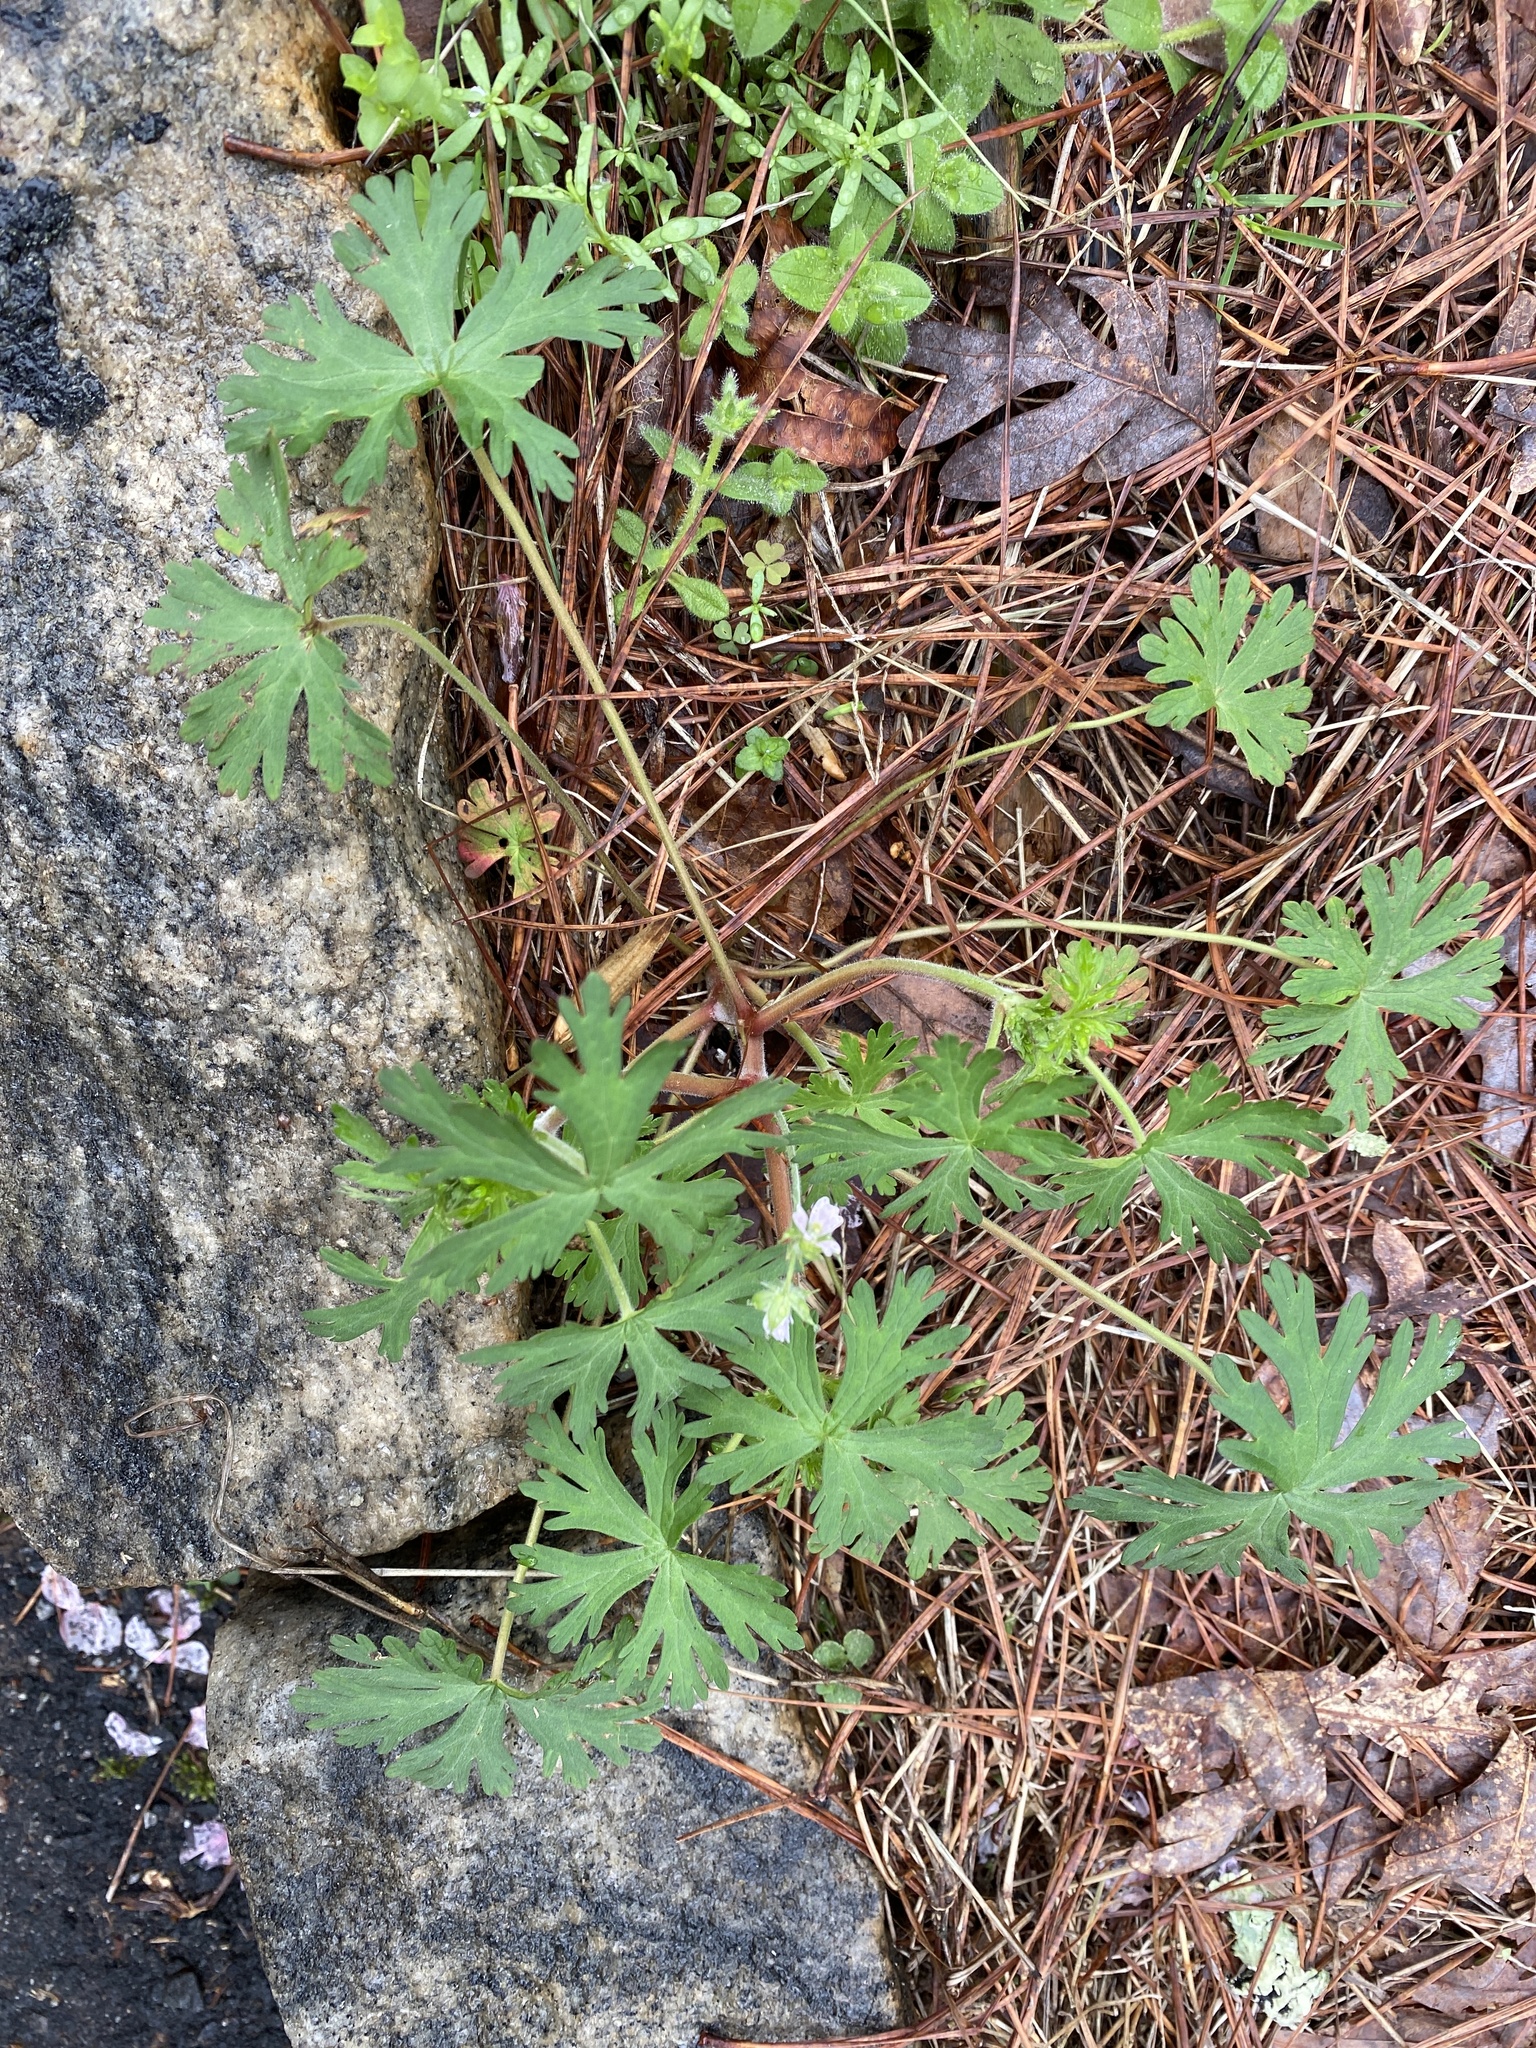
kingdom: Plantae
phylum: Tracheophyta
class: Magnoliopsida
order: Geraniales
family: Geraniaceae
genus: Geranium
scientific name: Geranium carolinianum
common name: Carolina crane's-bill
